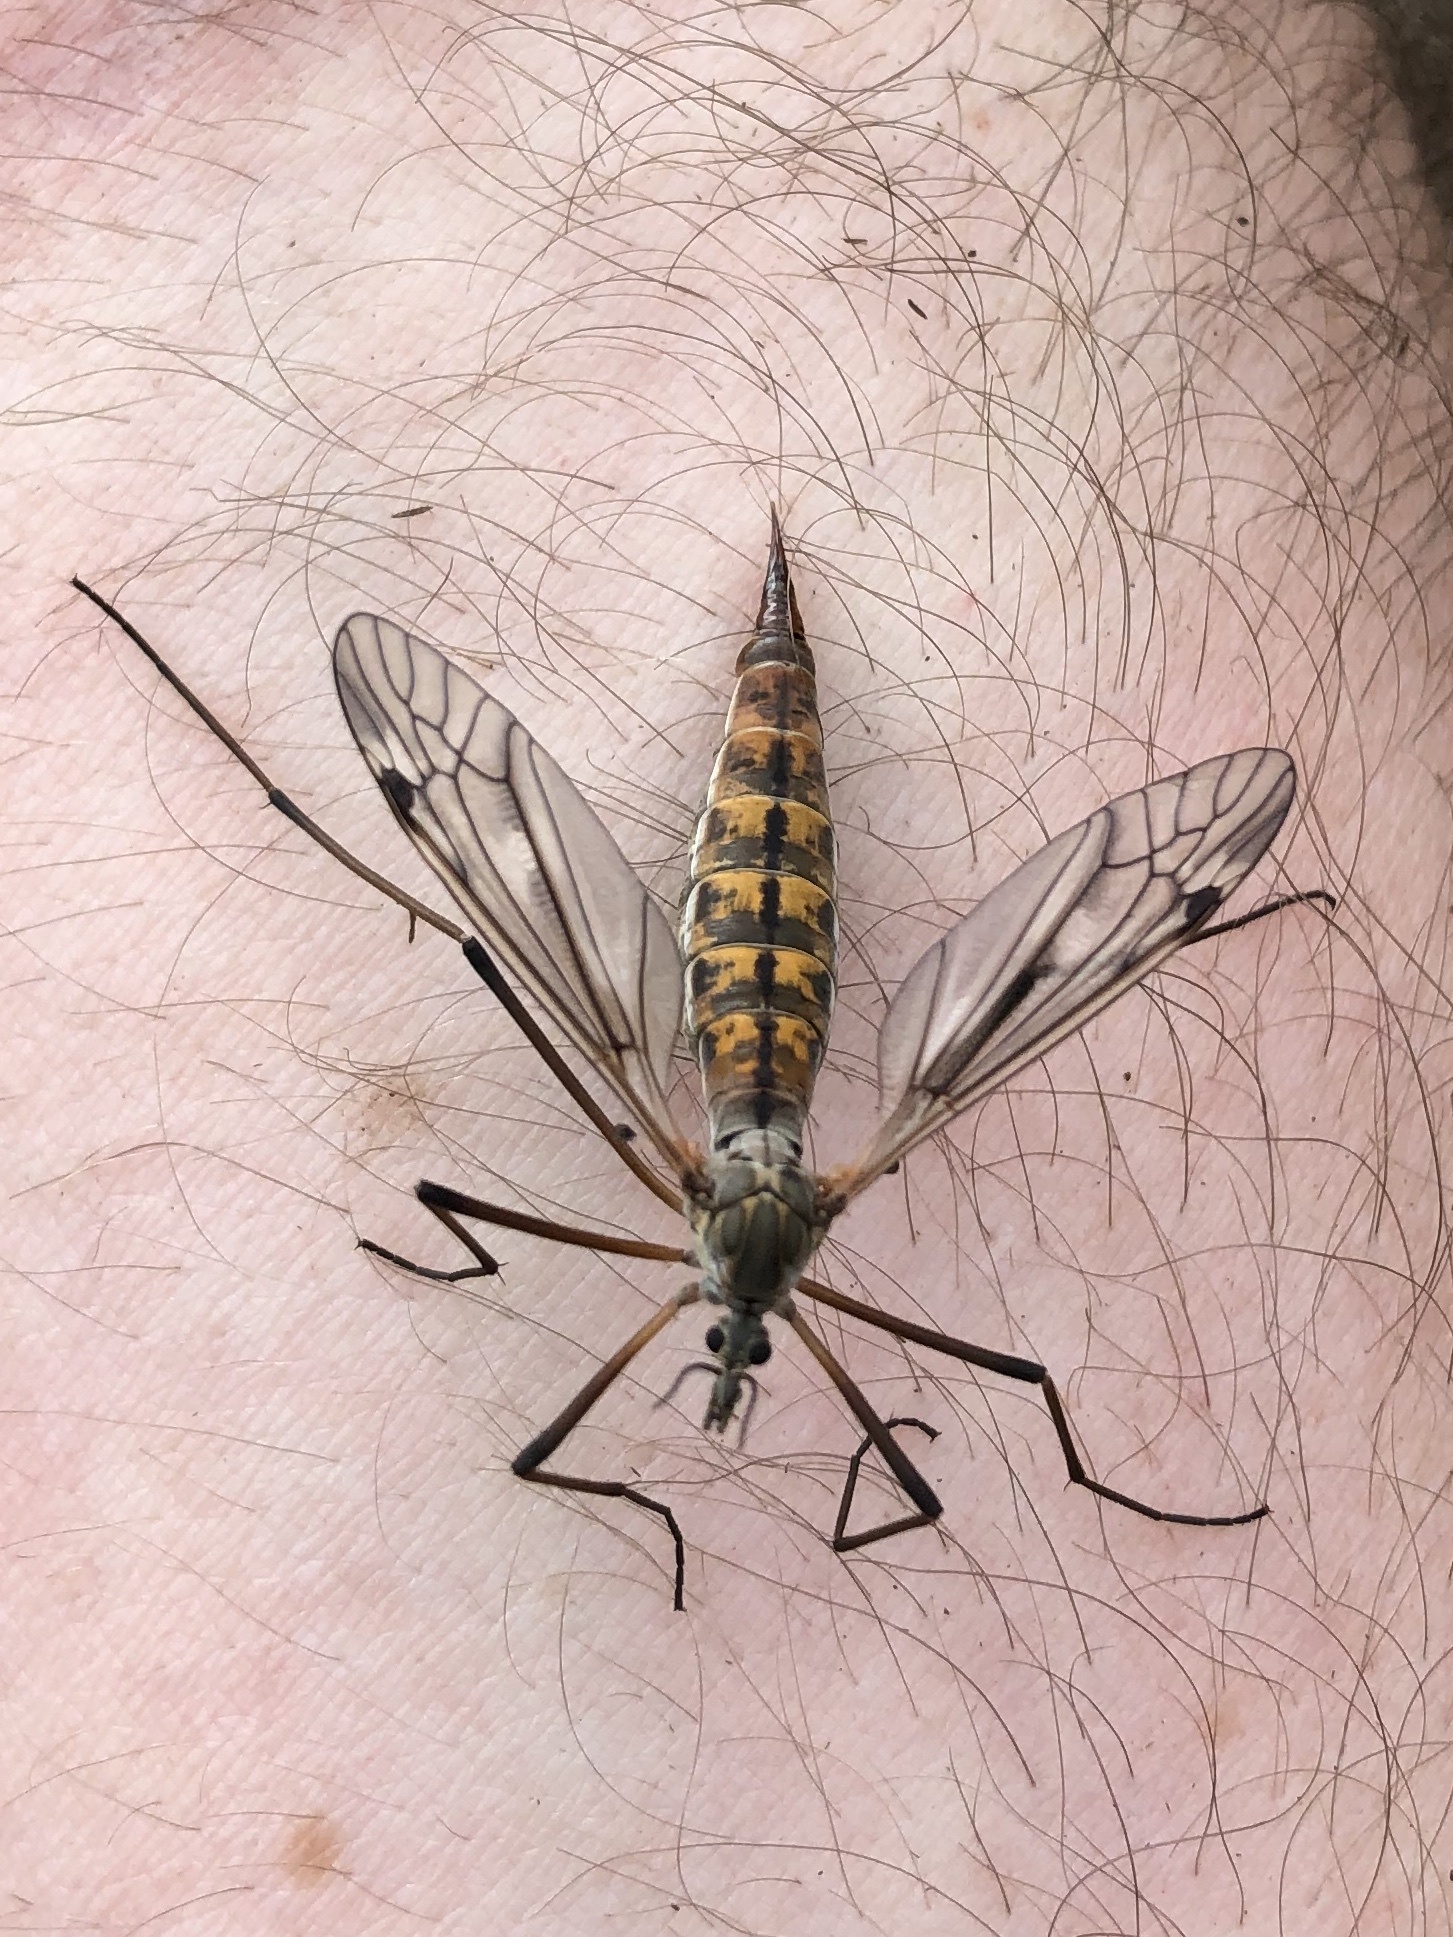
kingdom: Animalia
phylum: Arthropoda
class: Insecta
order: Diptera
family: Tipulidae
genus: Nephrotoma
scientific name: Nephrotoma ferruginea
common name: Ferruginous tiger crane fly
